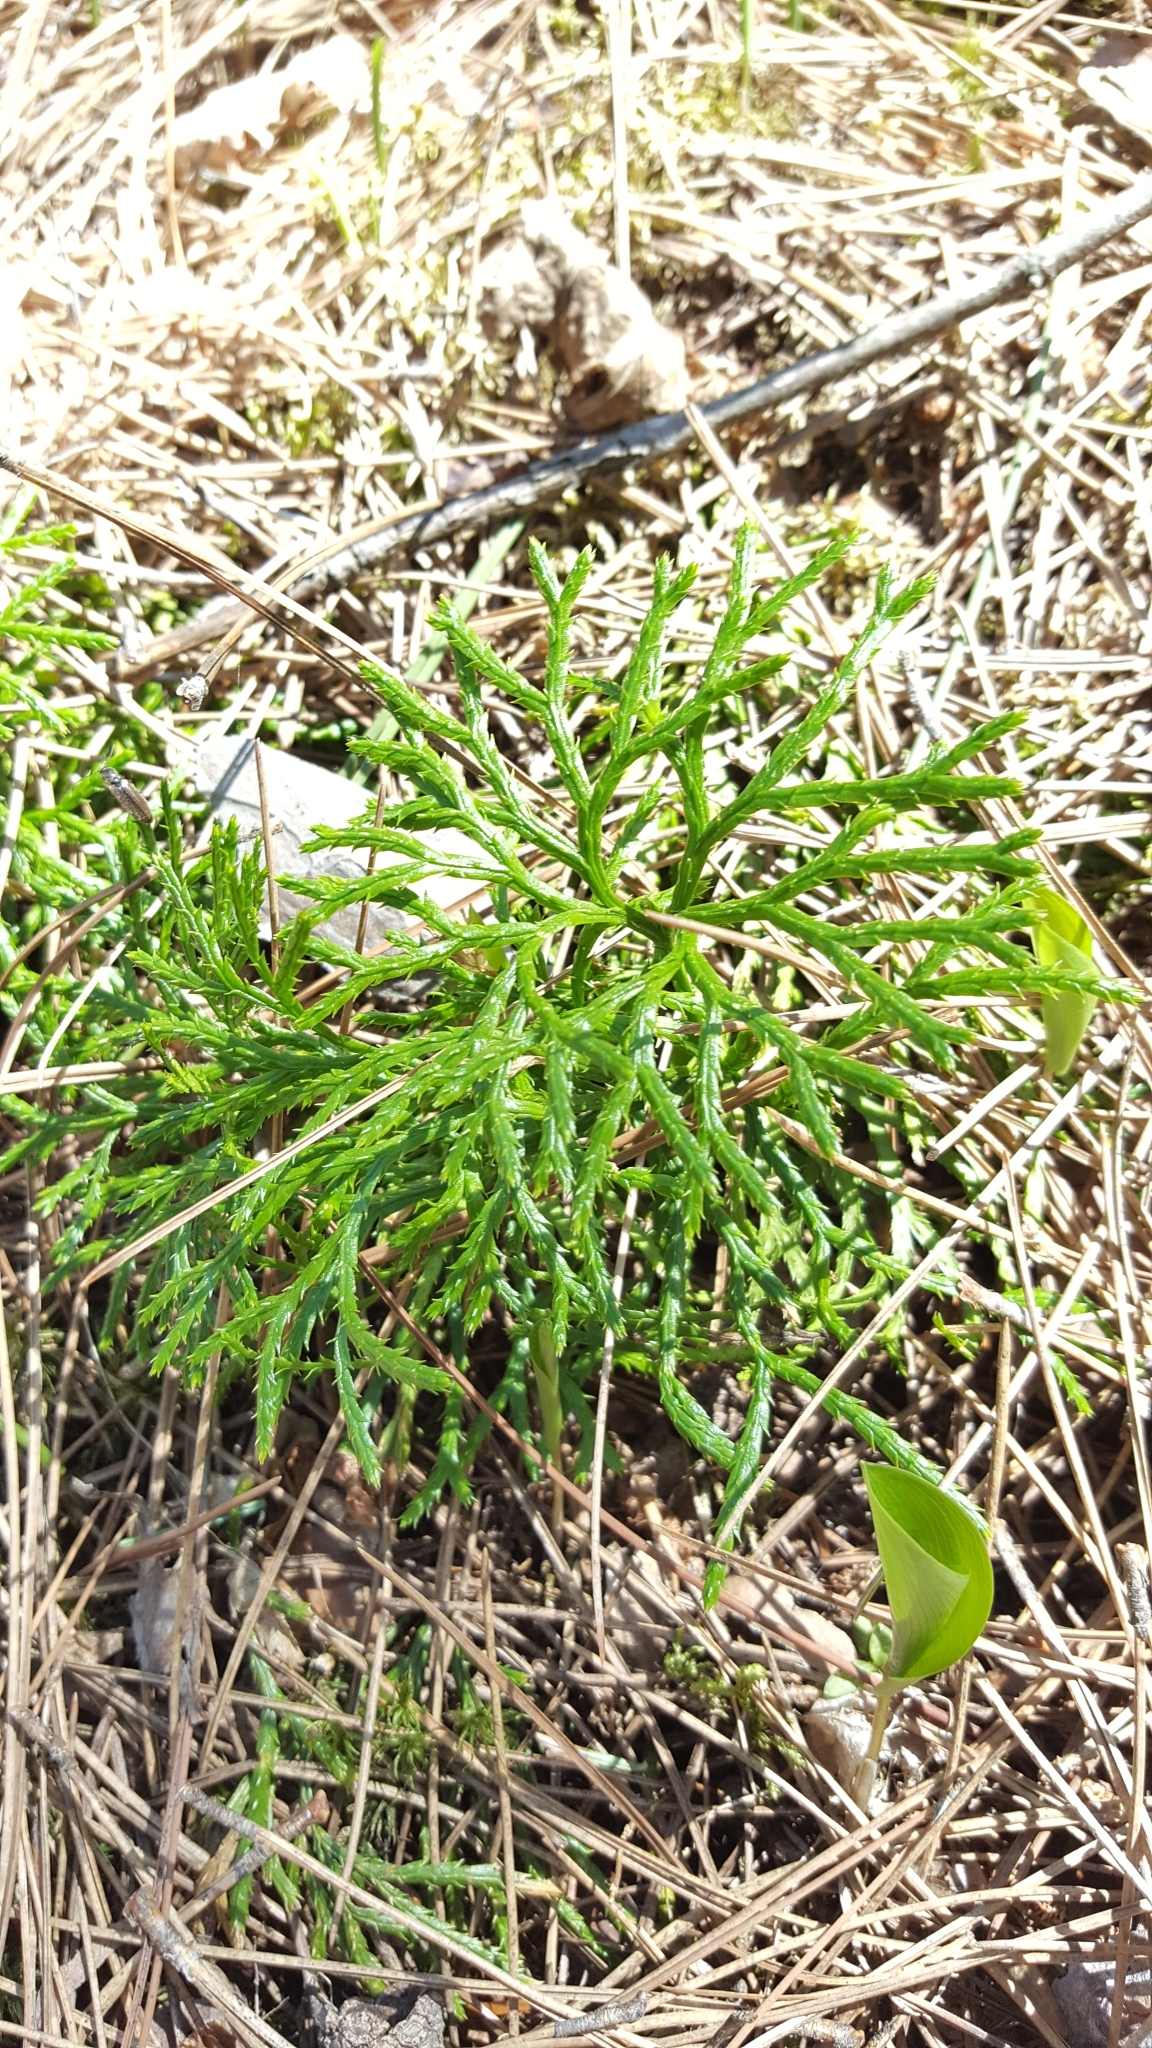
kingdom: Plantae
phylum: Tracheophyta
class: Lycopodiopsida
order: Lycopodiales
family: Lycopodiaceae
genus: Diphasiastrum
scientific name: Diphasiastrum complanatum
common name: Northern running-pine
